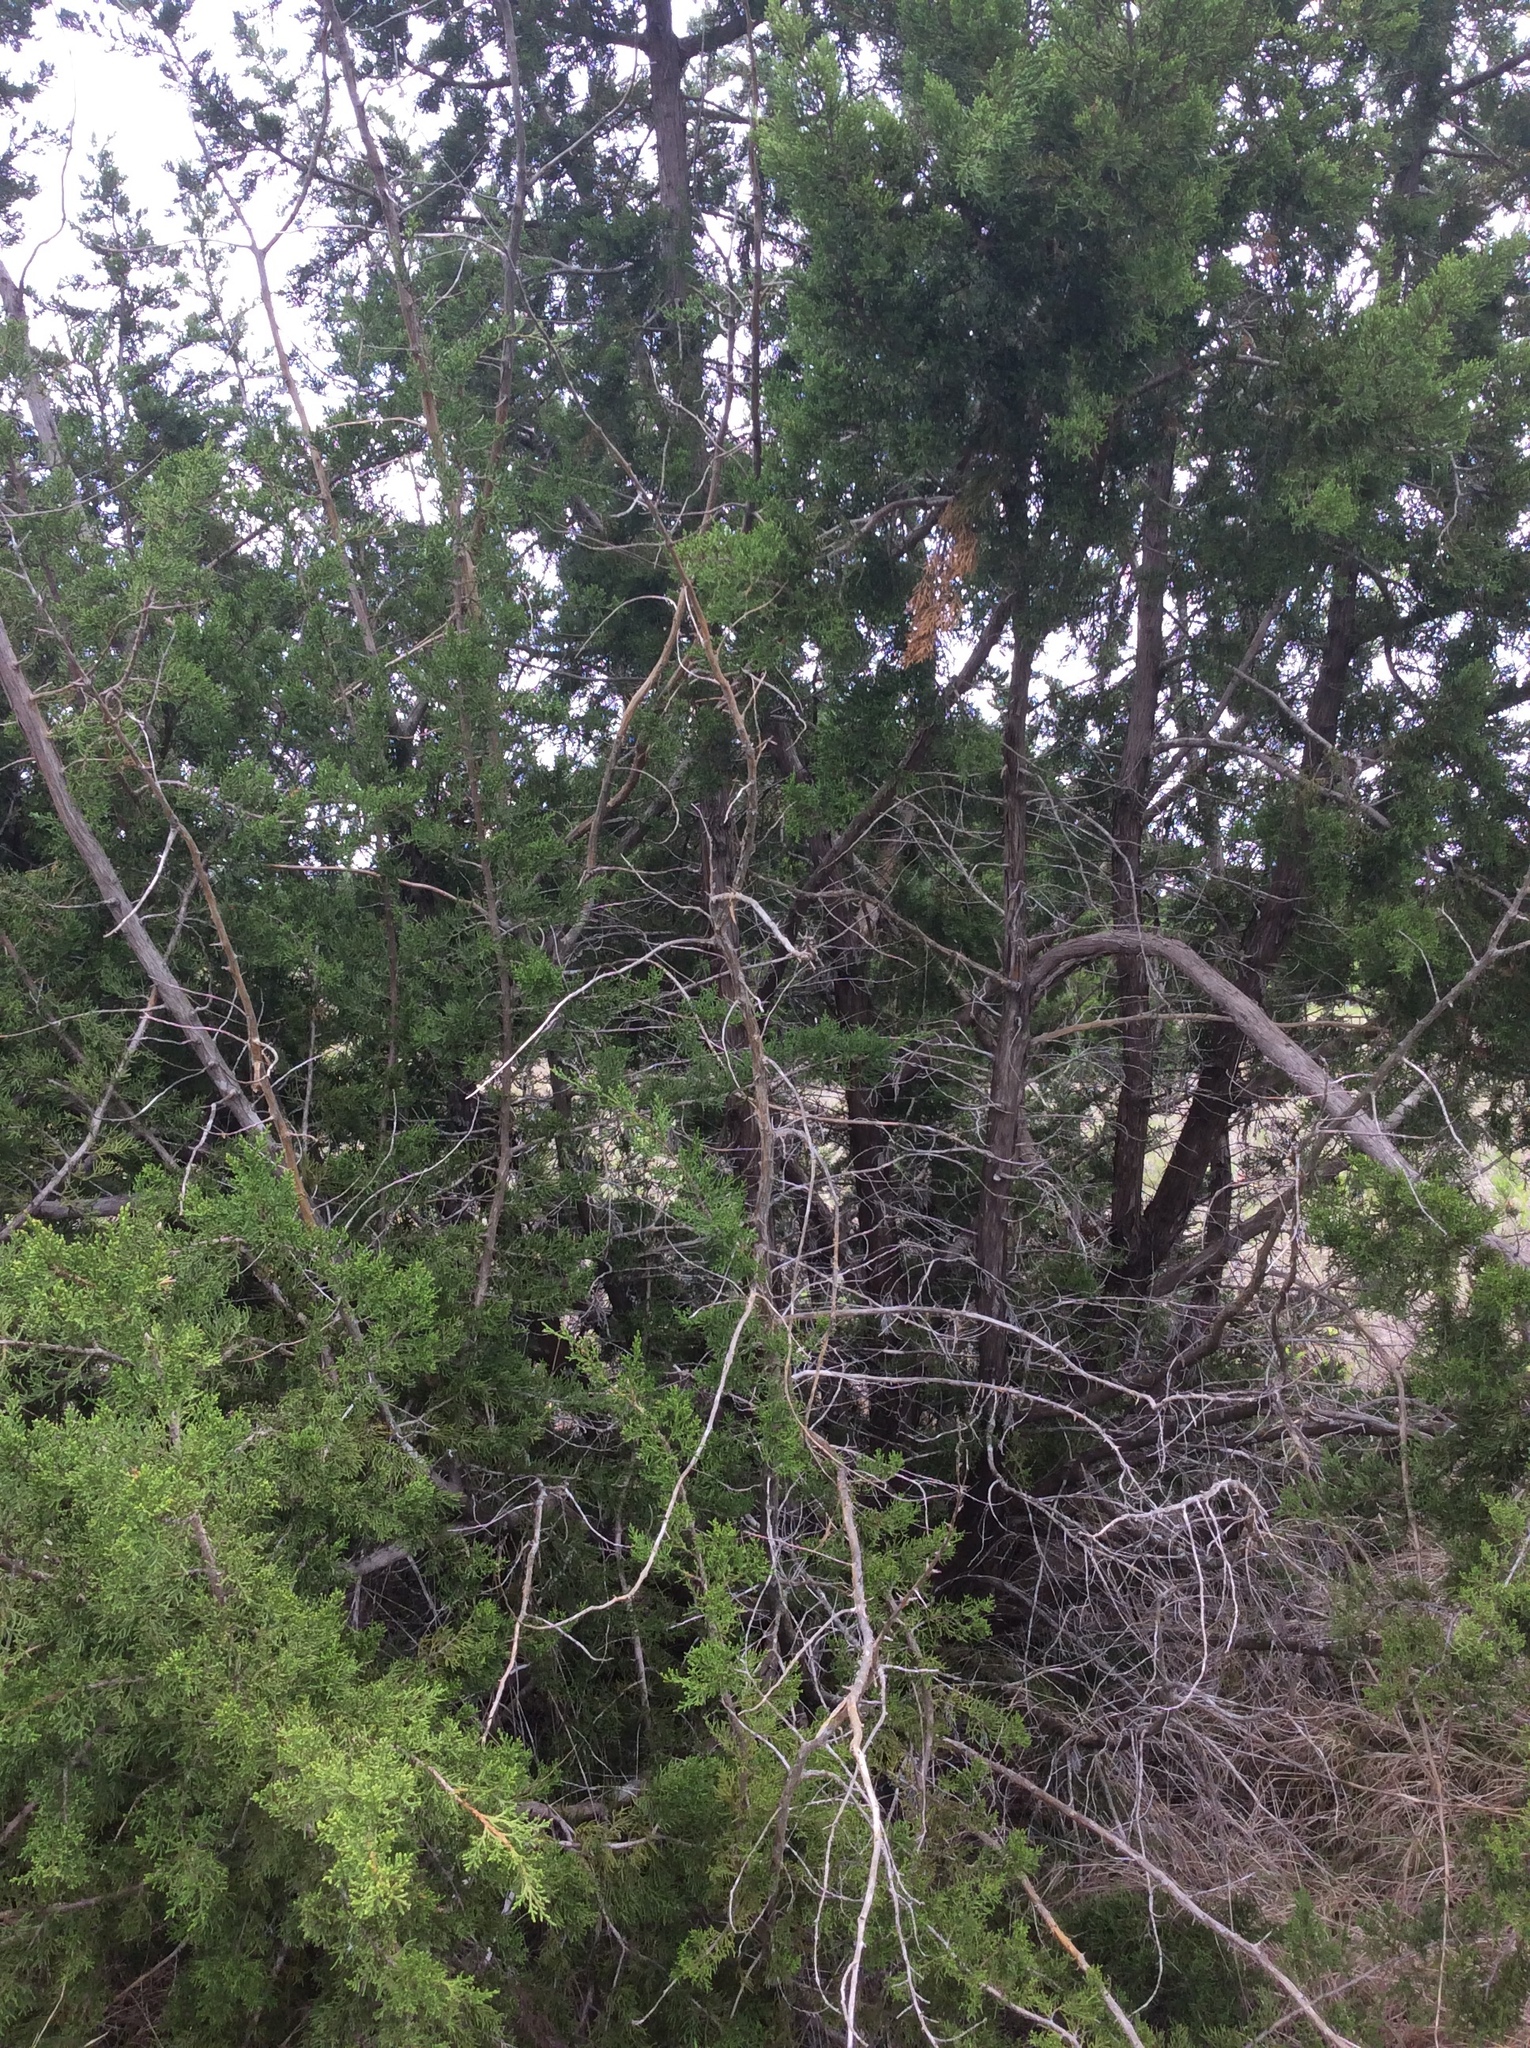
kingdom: Plantae
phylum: Tracheophyta
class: Pinopsida
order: Pinales
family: Cupressaceae
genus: Juniperus
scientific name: Juniperus ashei
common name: Mexican juniper
